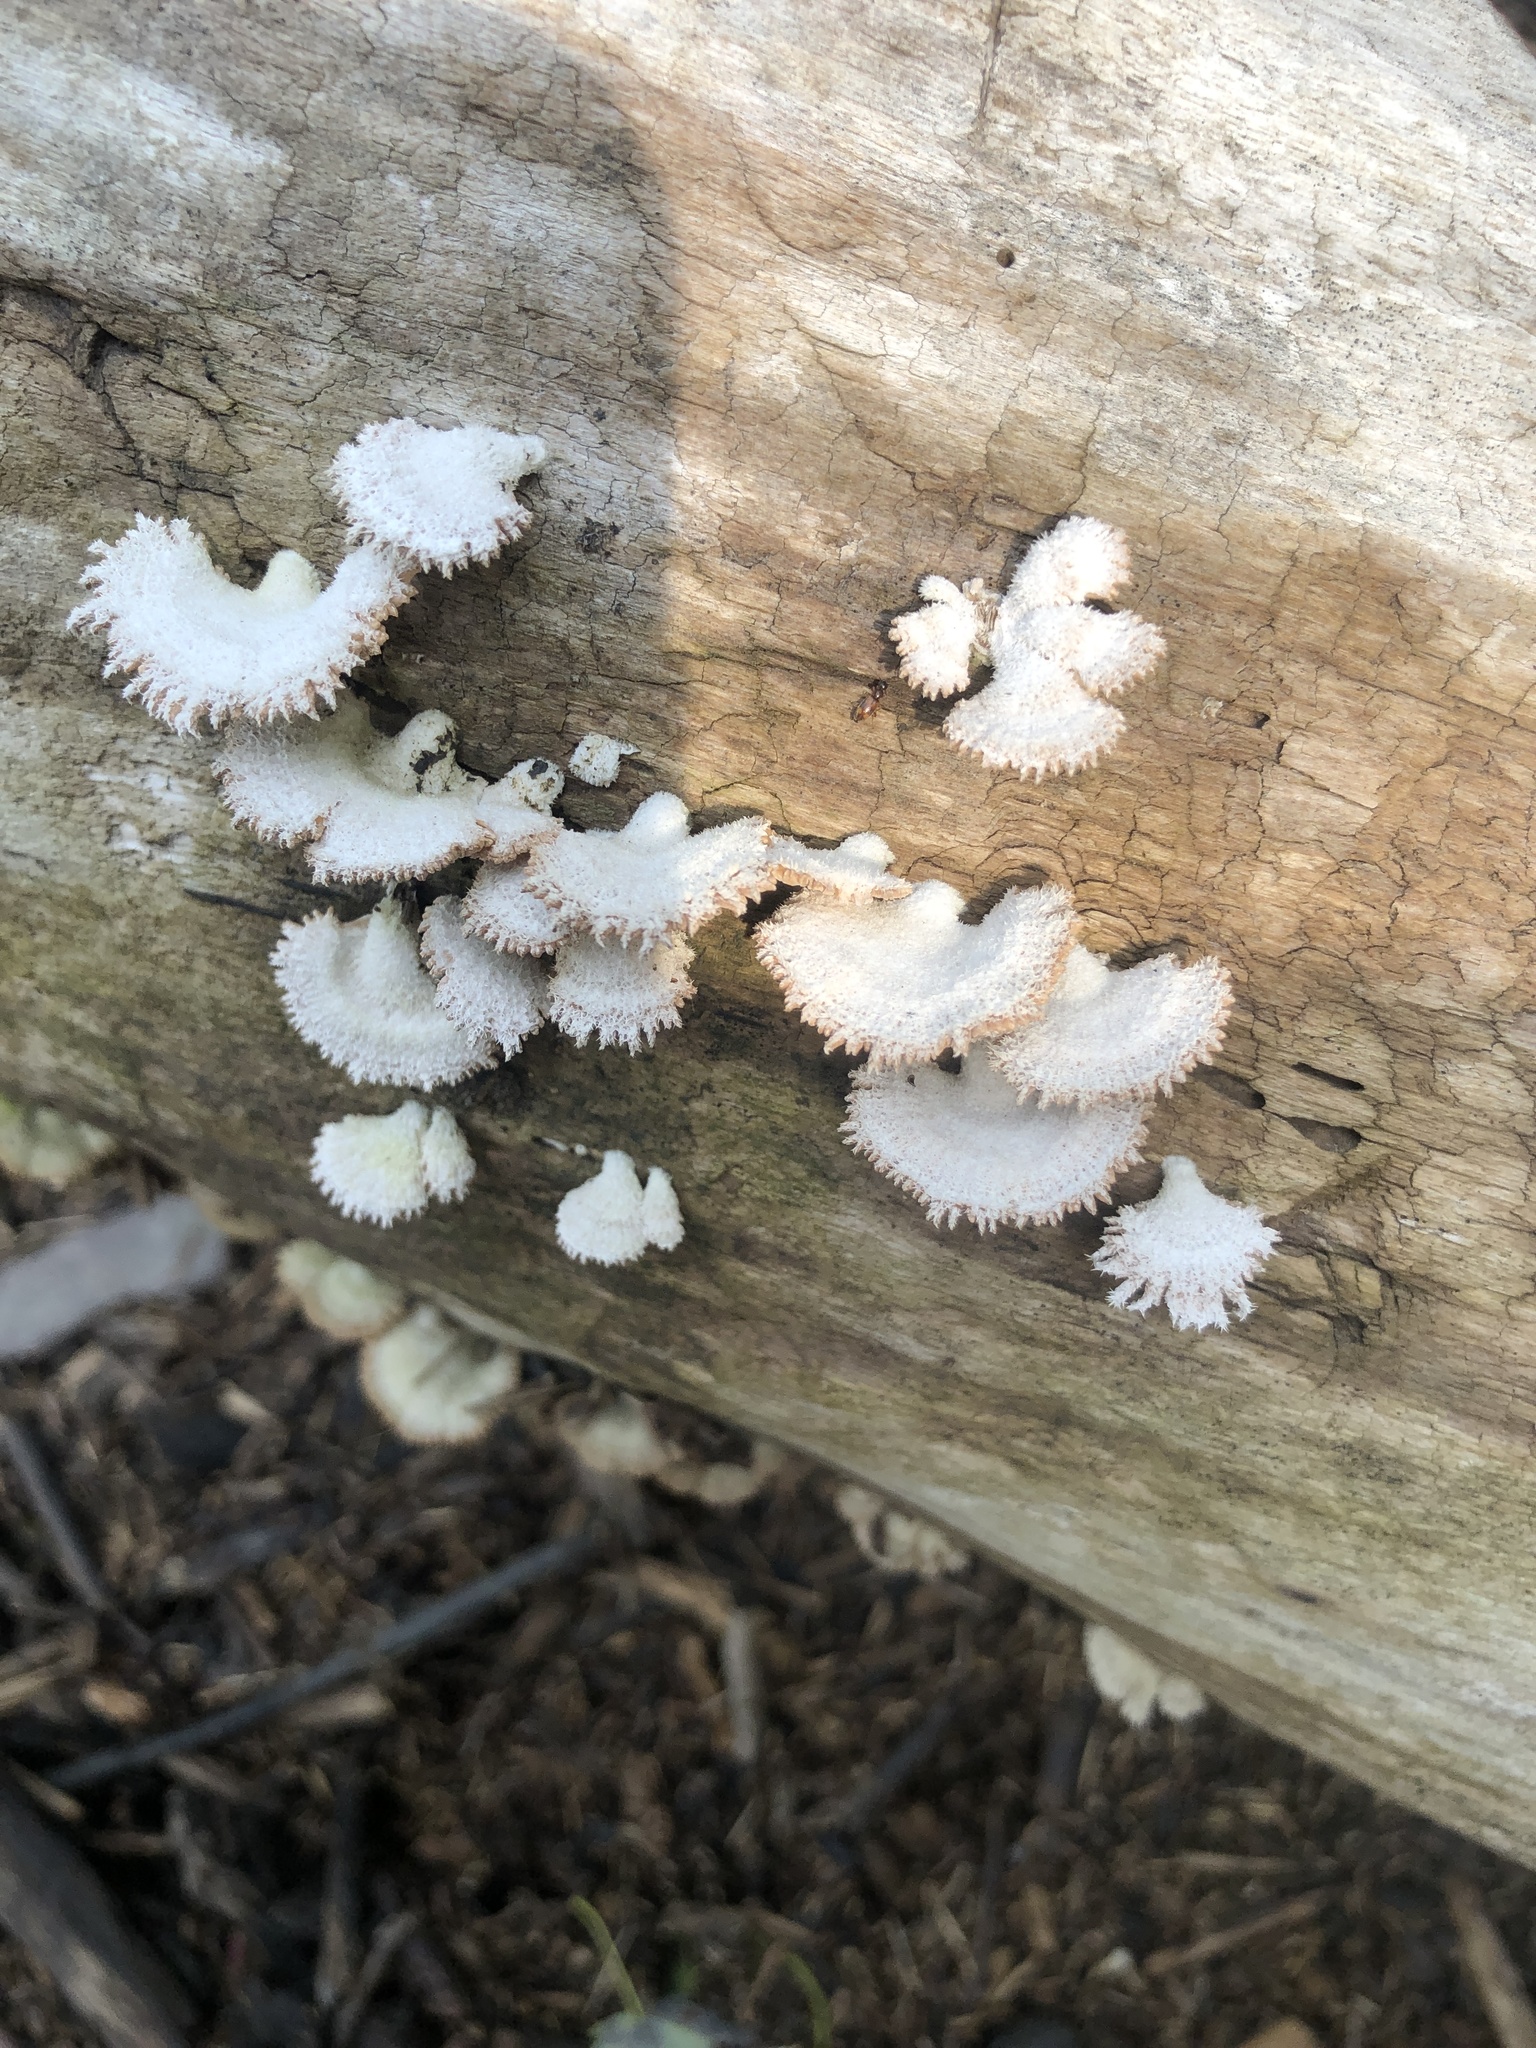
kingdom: Fungi
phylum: Basidiomycota
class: Agaricomycetes
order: Agaricales
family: Schizophyllaceae
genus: Schizophyllum
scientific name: Schizophyllum commune
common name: Common porecrust
